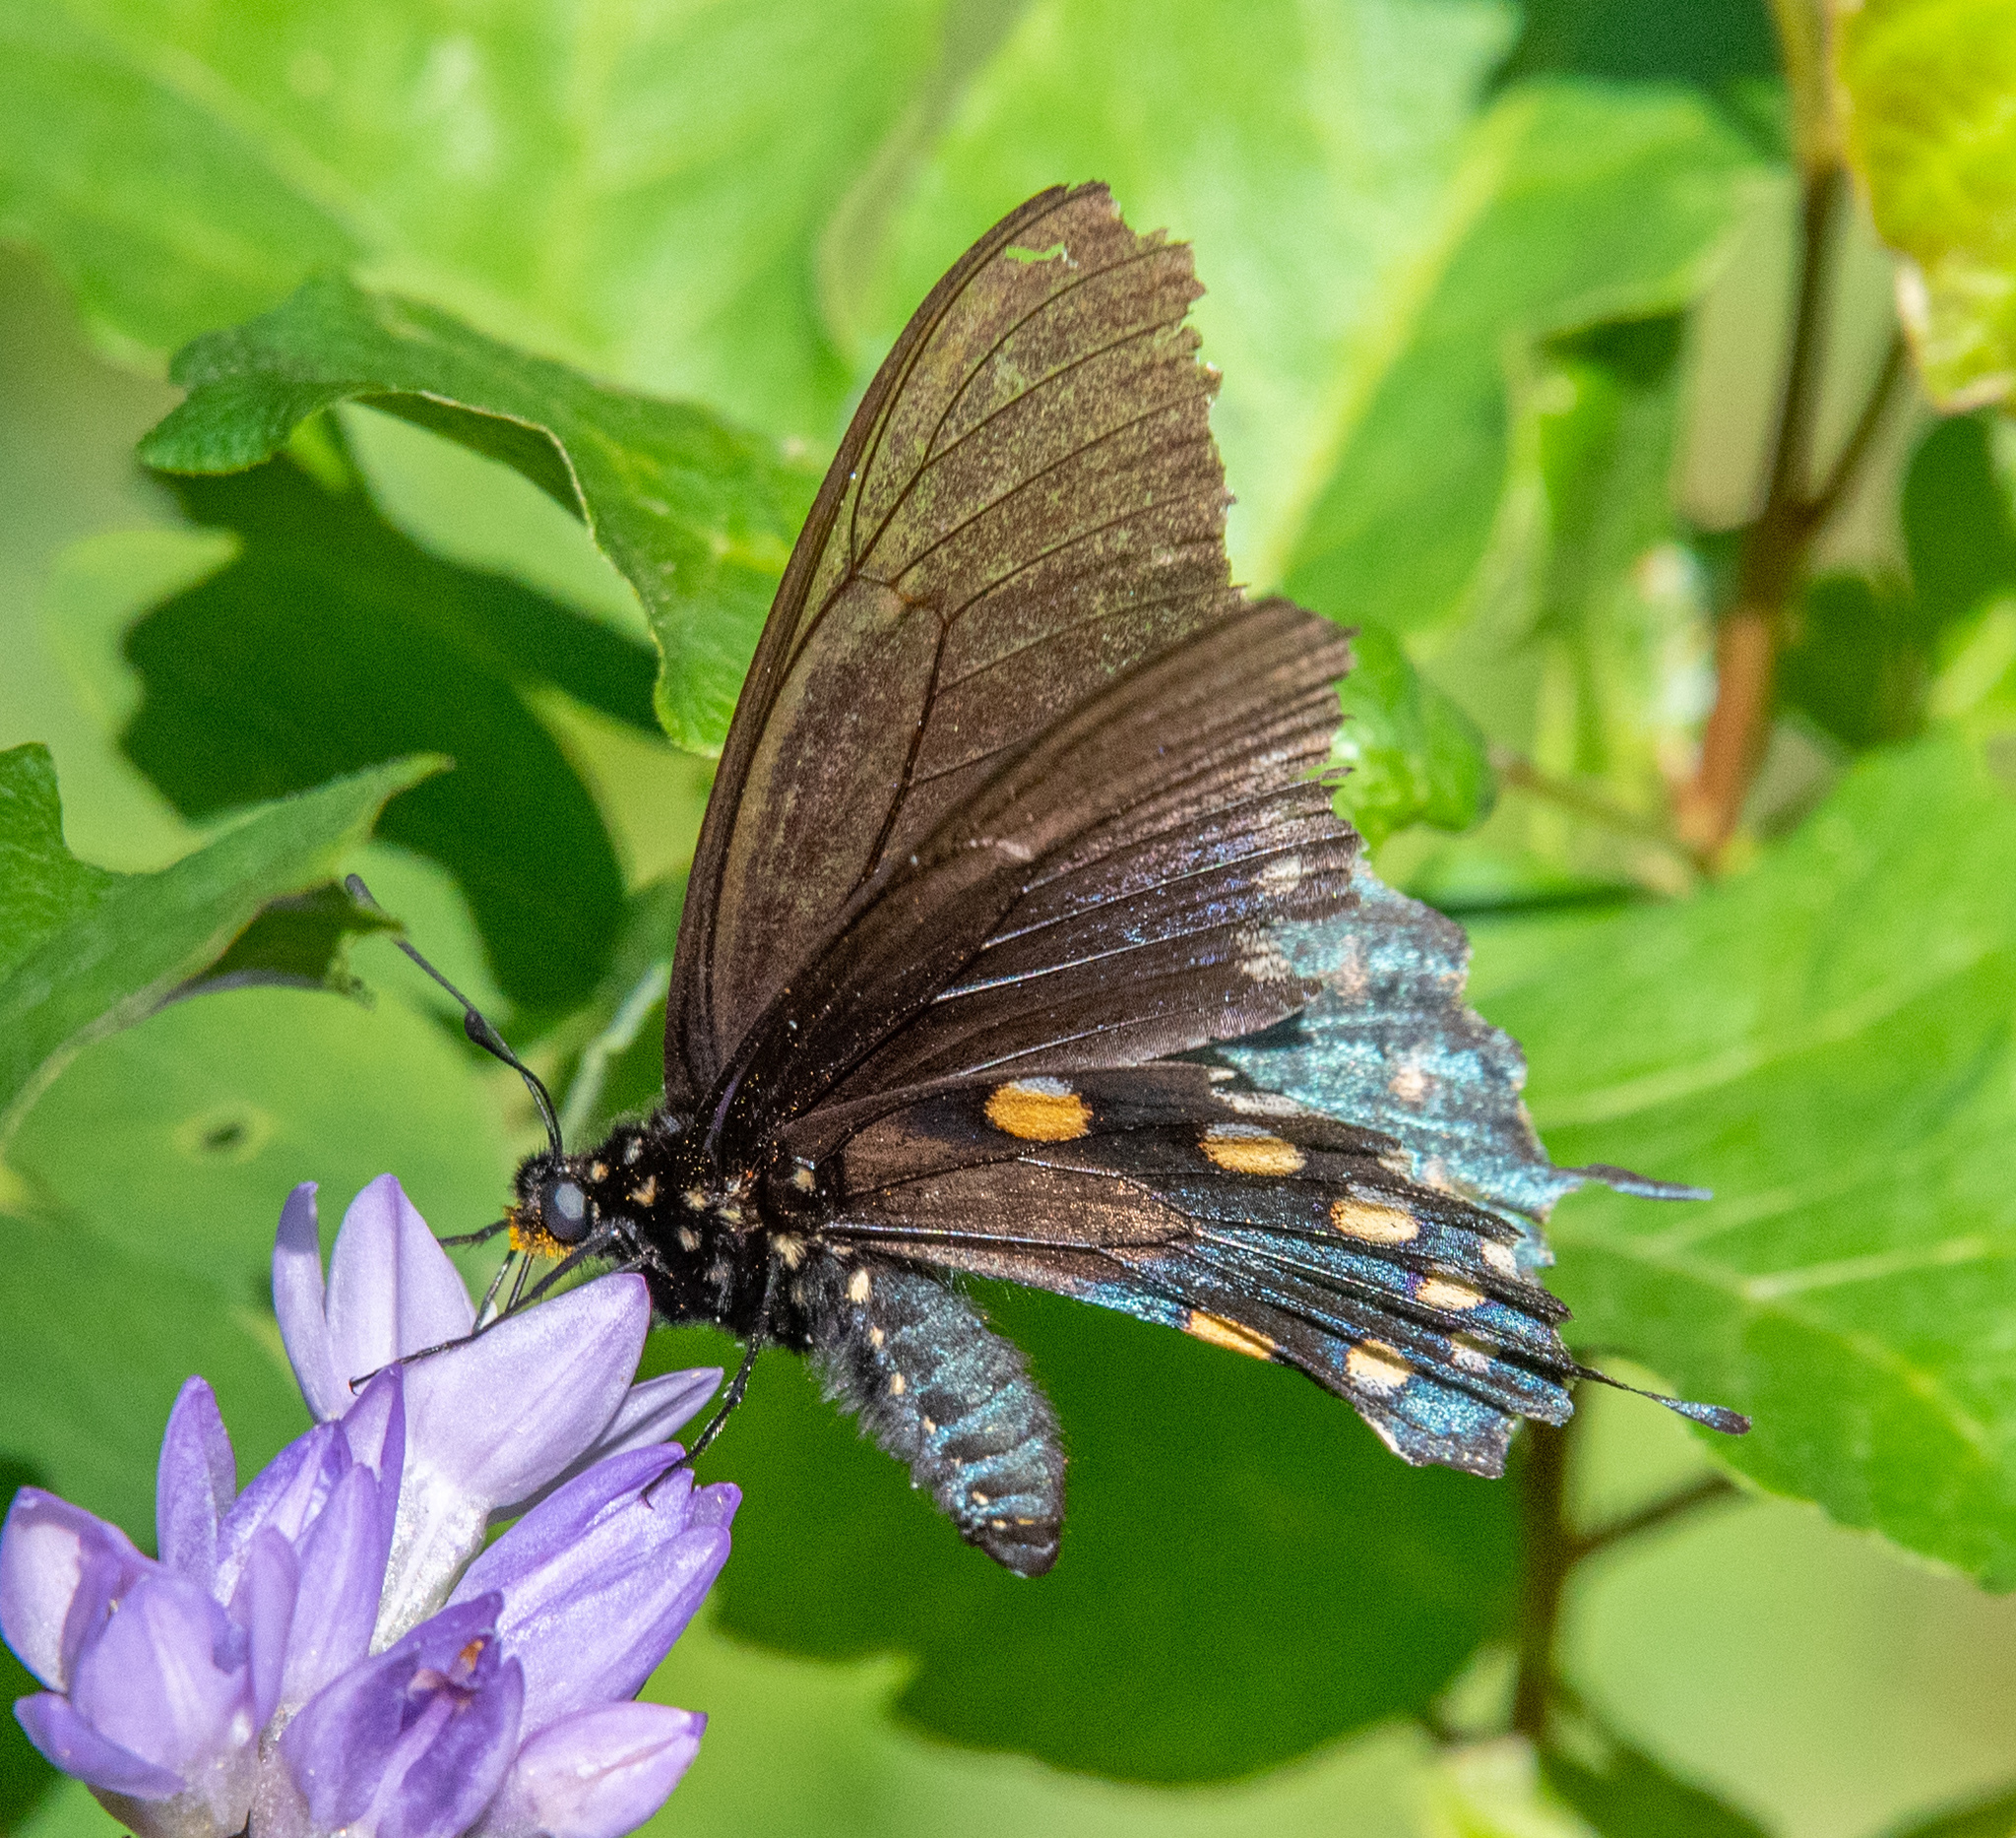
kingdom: Animalia
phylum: Arthropoda
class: Insecta
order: Lepidoptera
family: Papilionidae
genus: Battus
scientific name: Battus philenor
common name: Pipevine swallowtail
